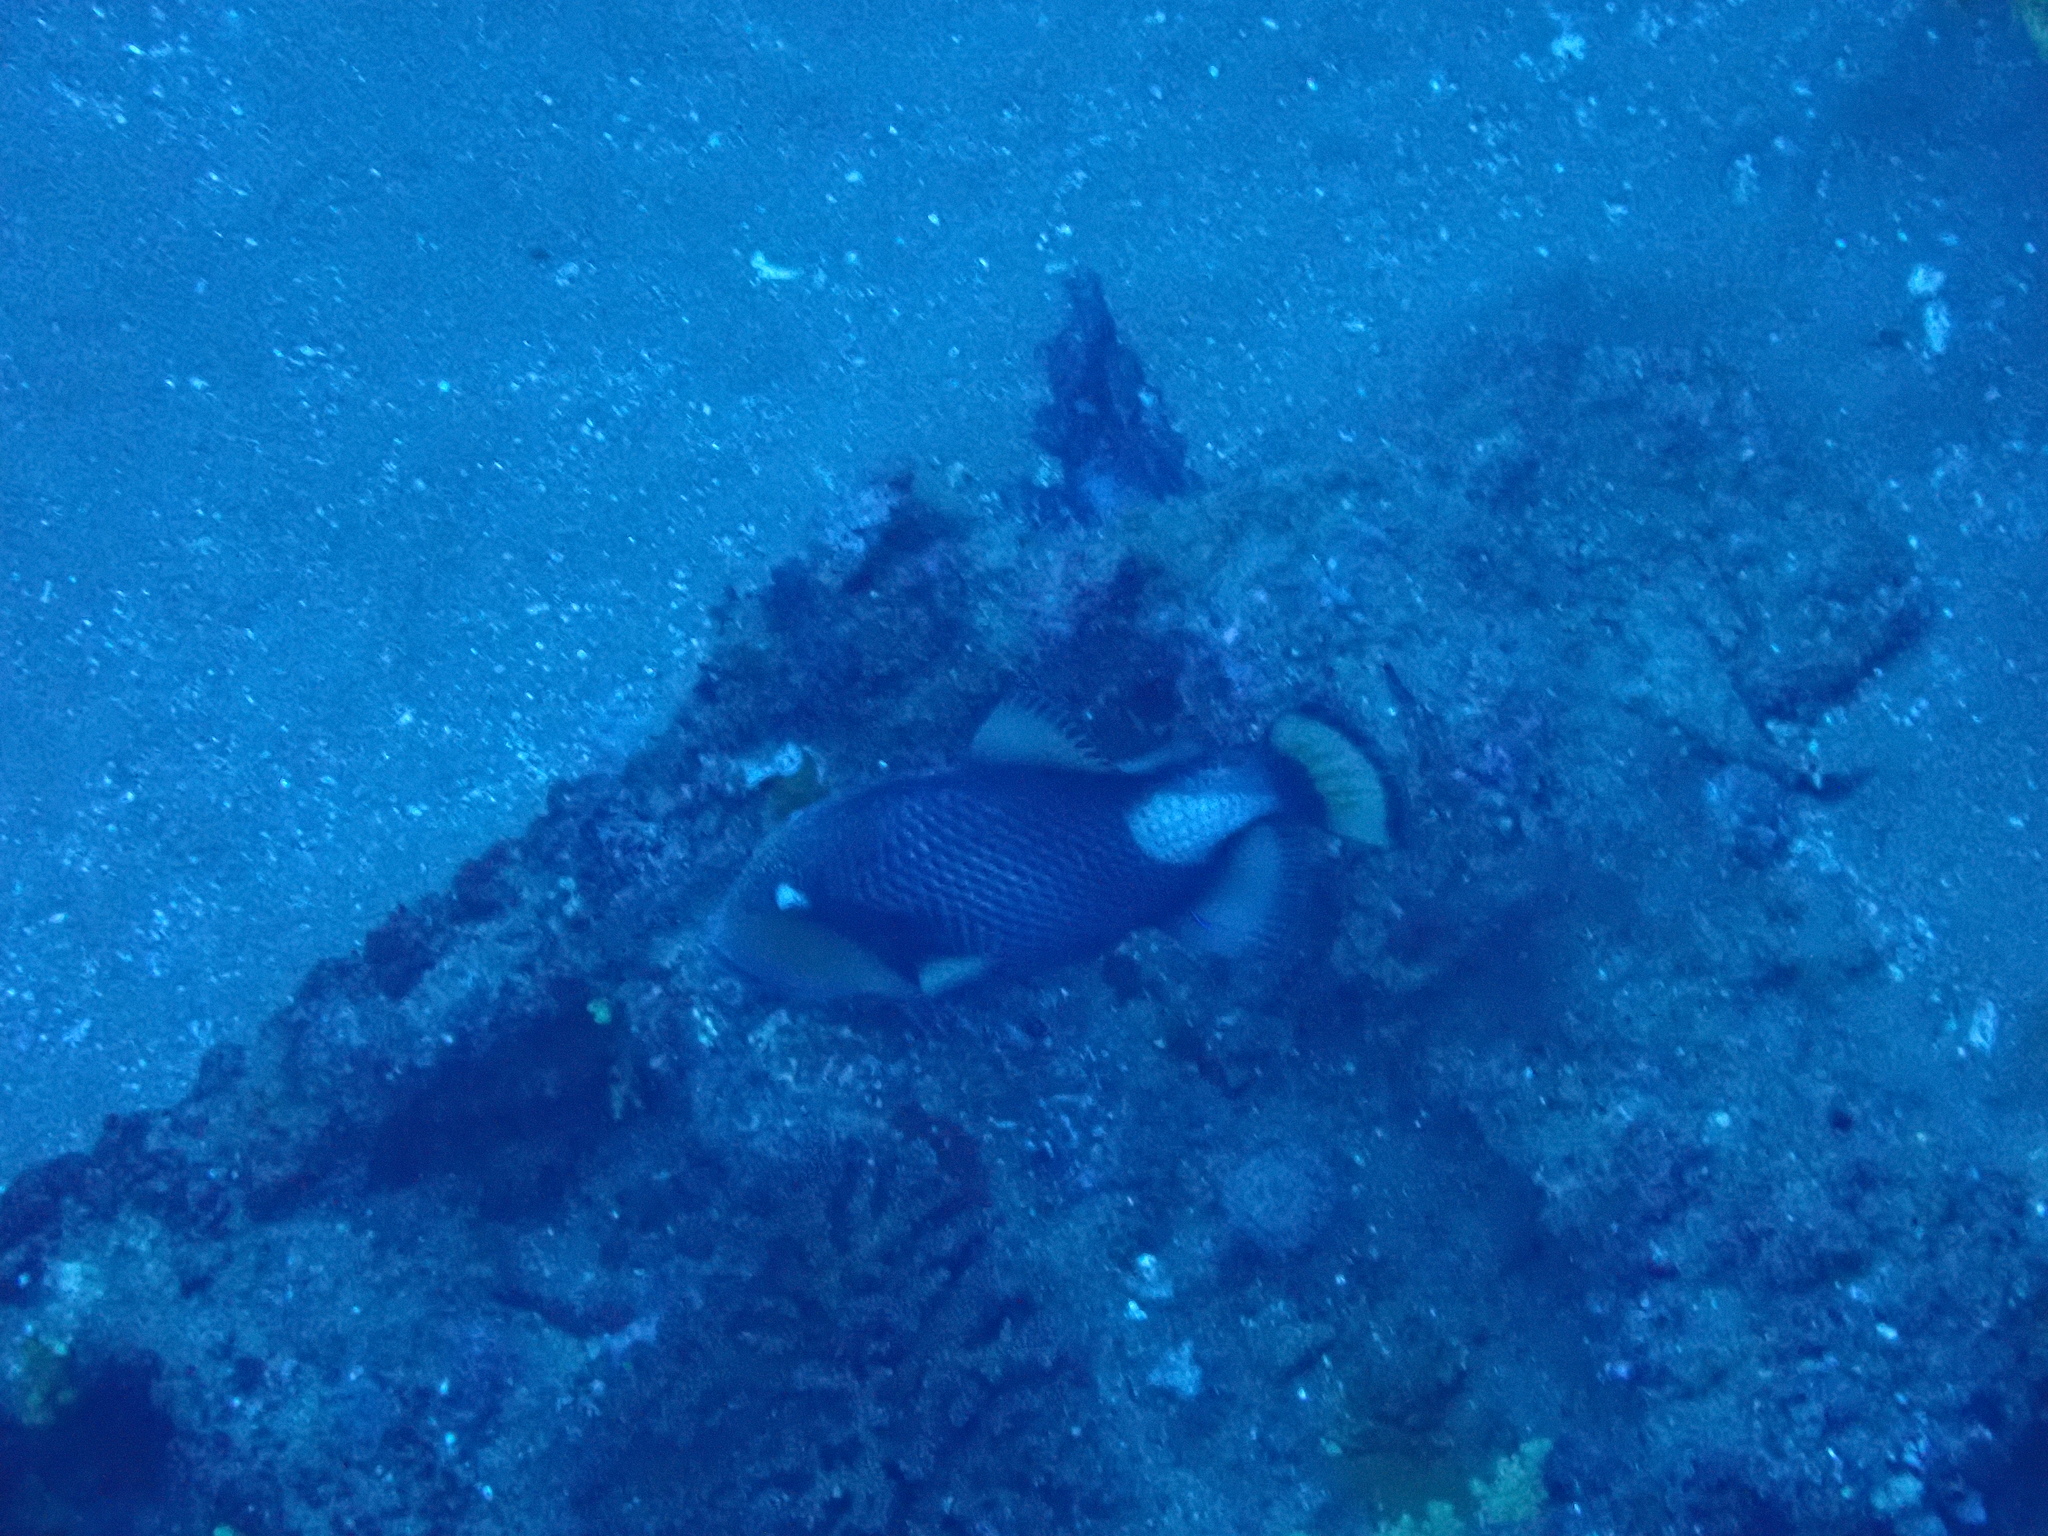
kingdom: Animalia
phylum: Chordata
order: Tetraodontiformes
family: Balistidae
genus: Balistoides
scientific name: Balistoides viridescens
